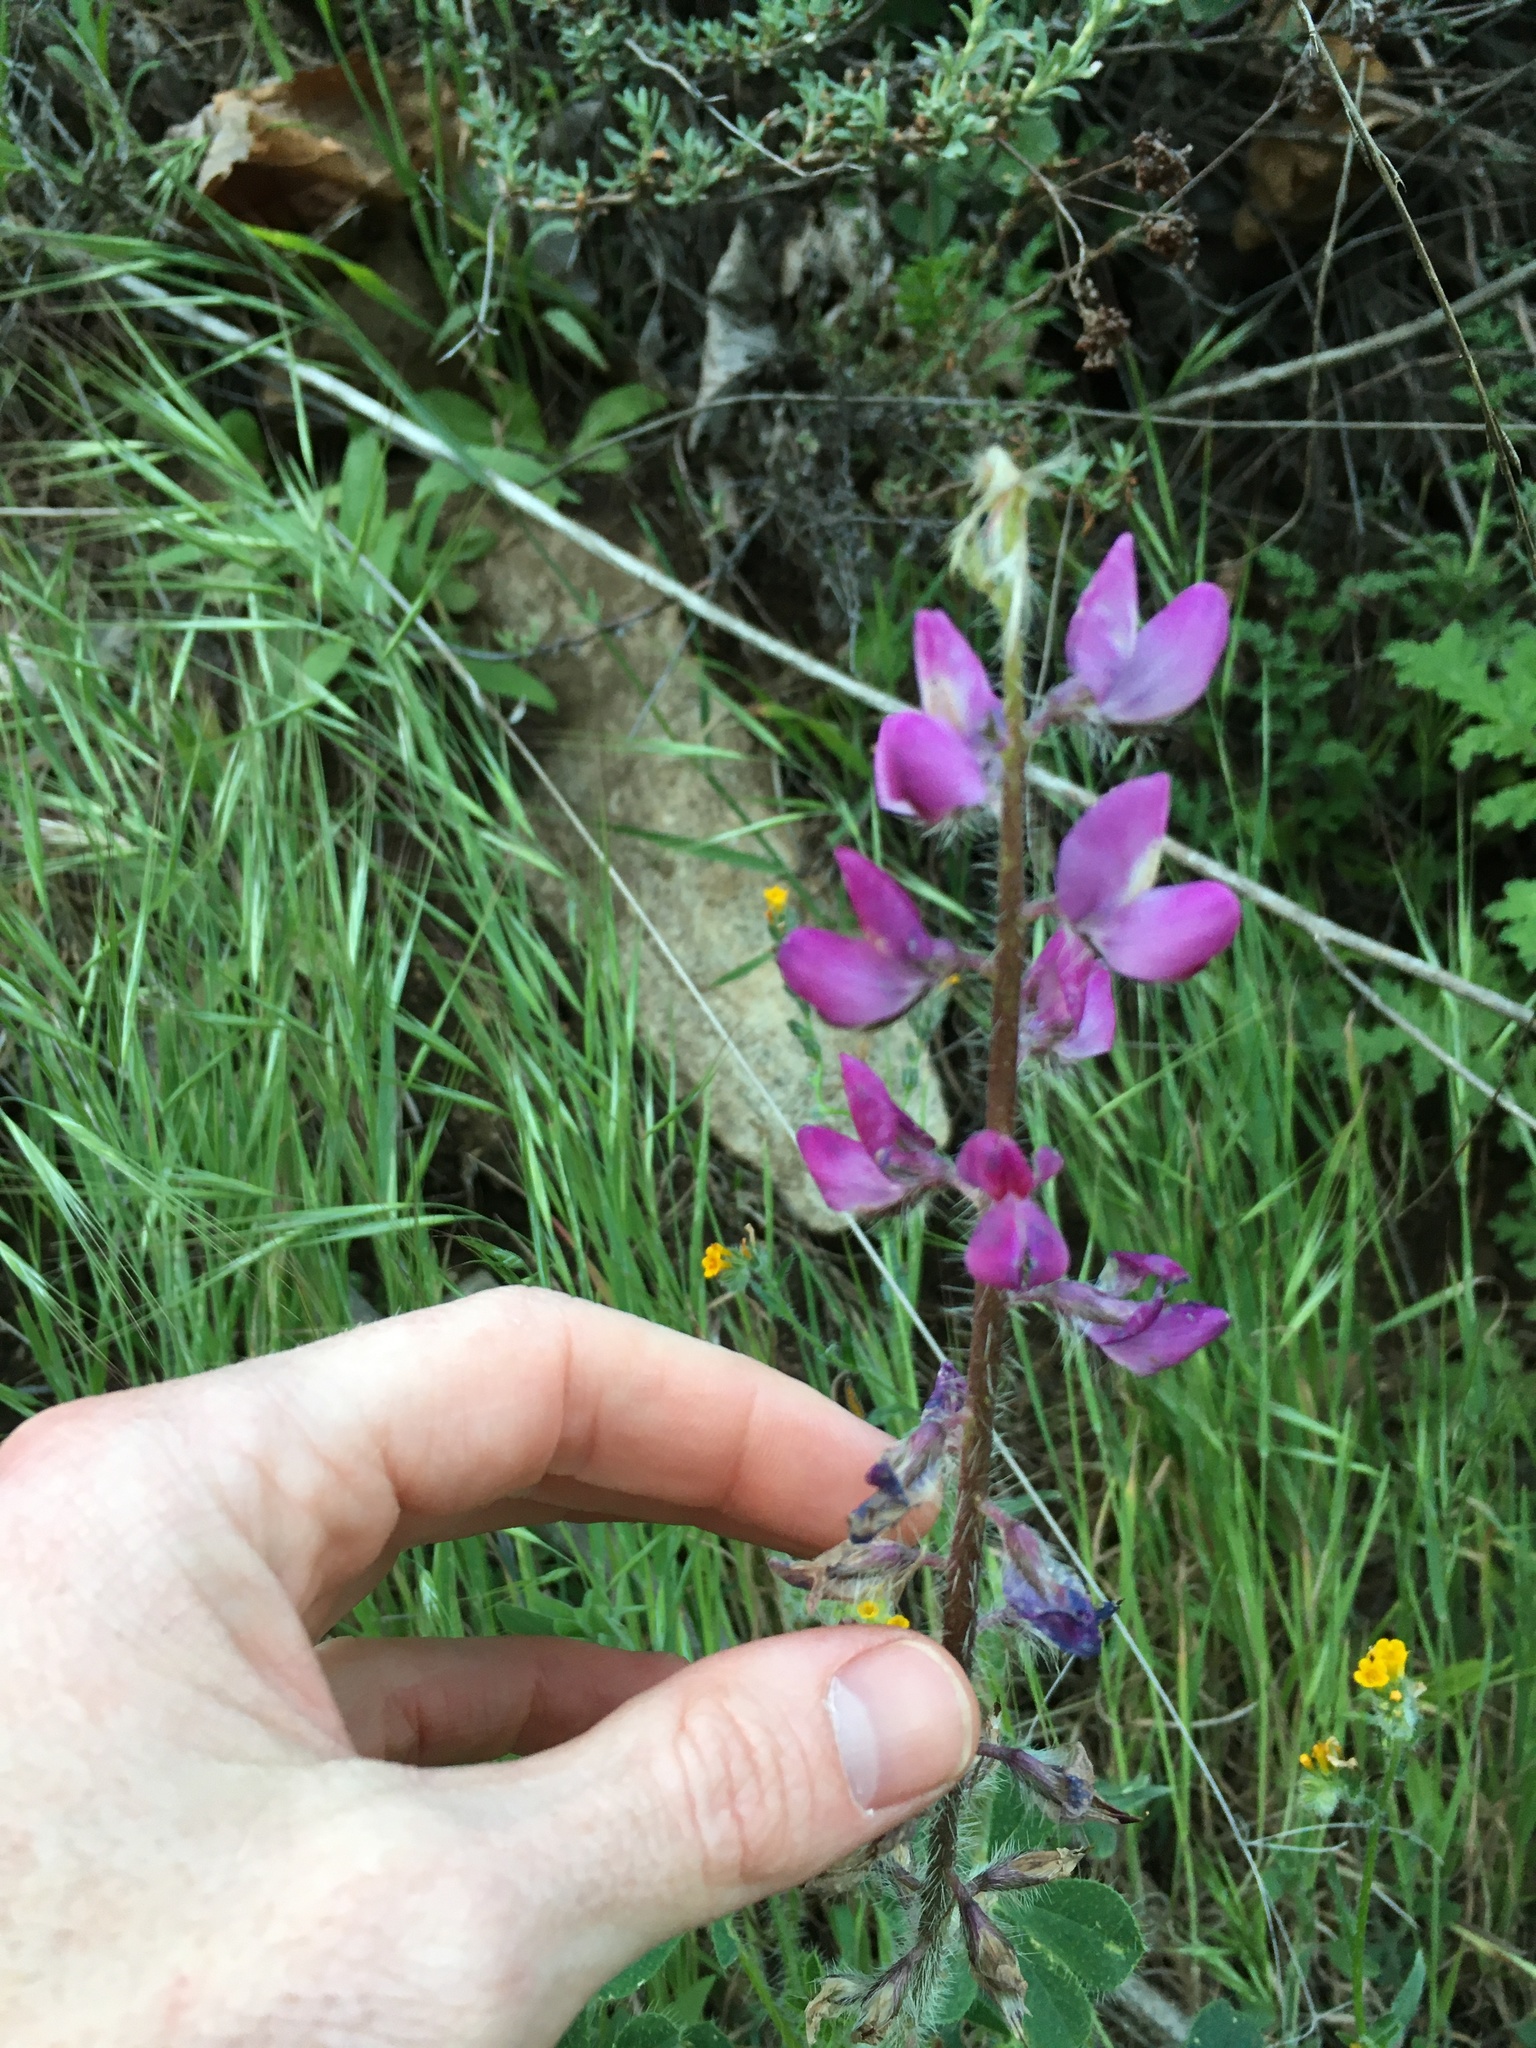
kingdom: Plantae
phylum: Tracheophyta
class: Magnoliopsida
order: Fabales
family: Fabaceae
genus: Lupinus
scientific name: Lupinus hirsutissimus
